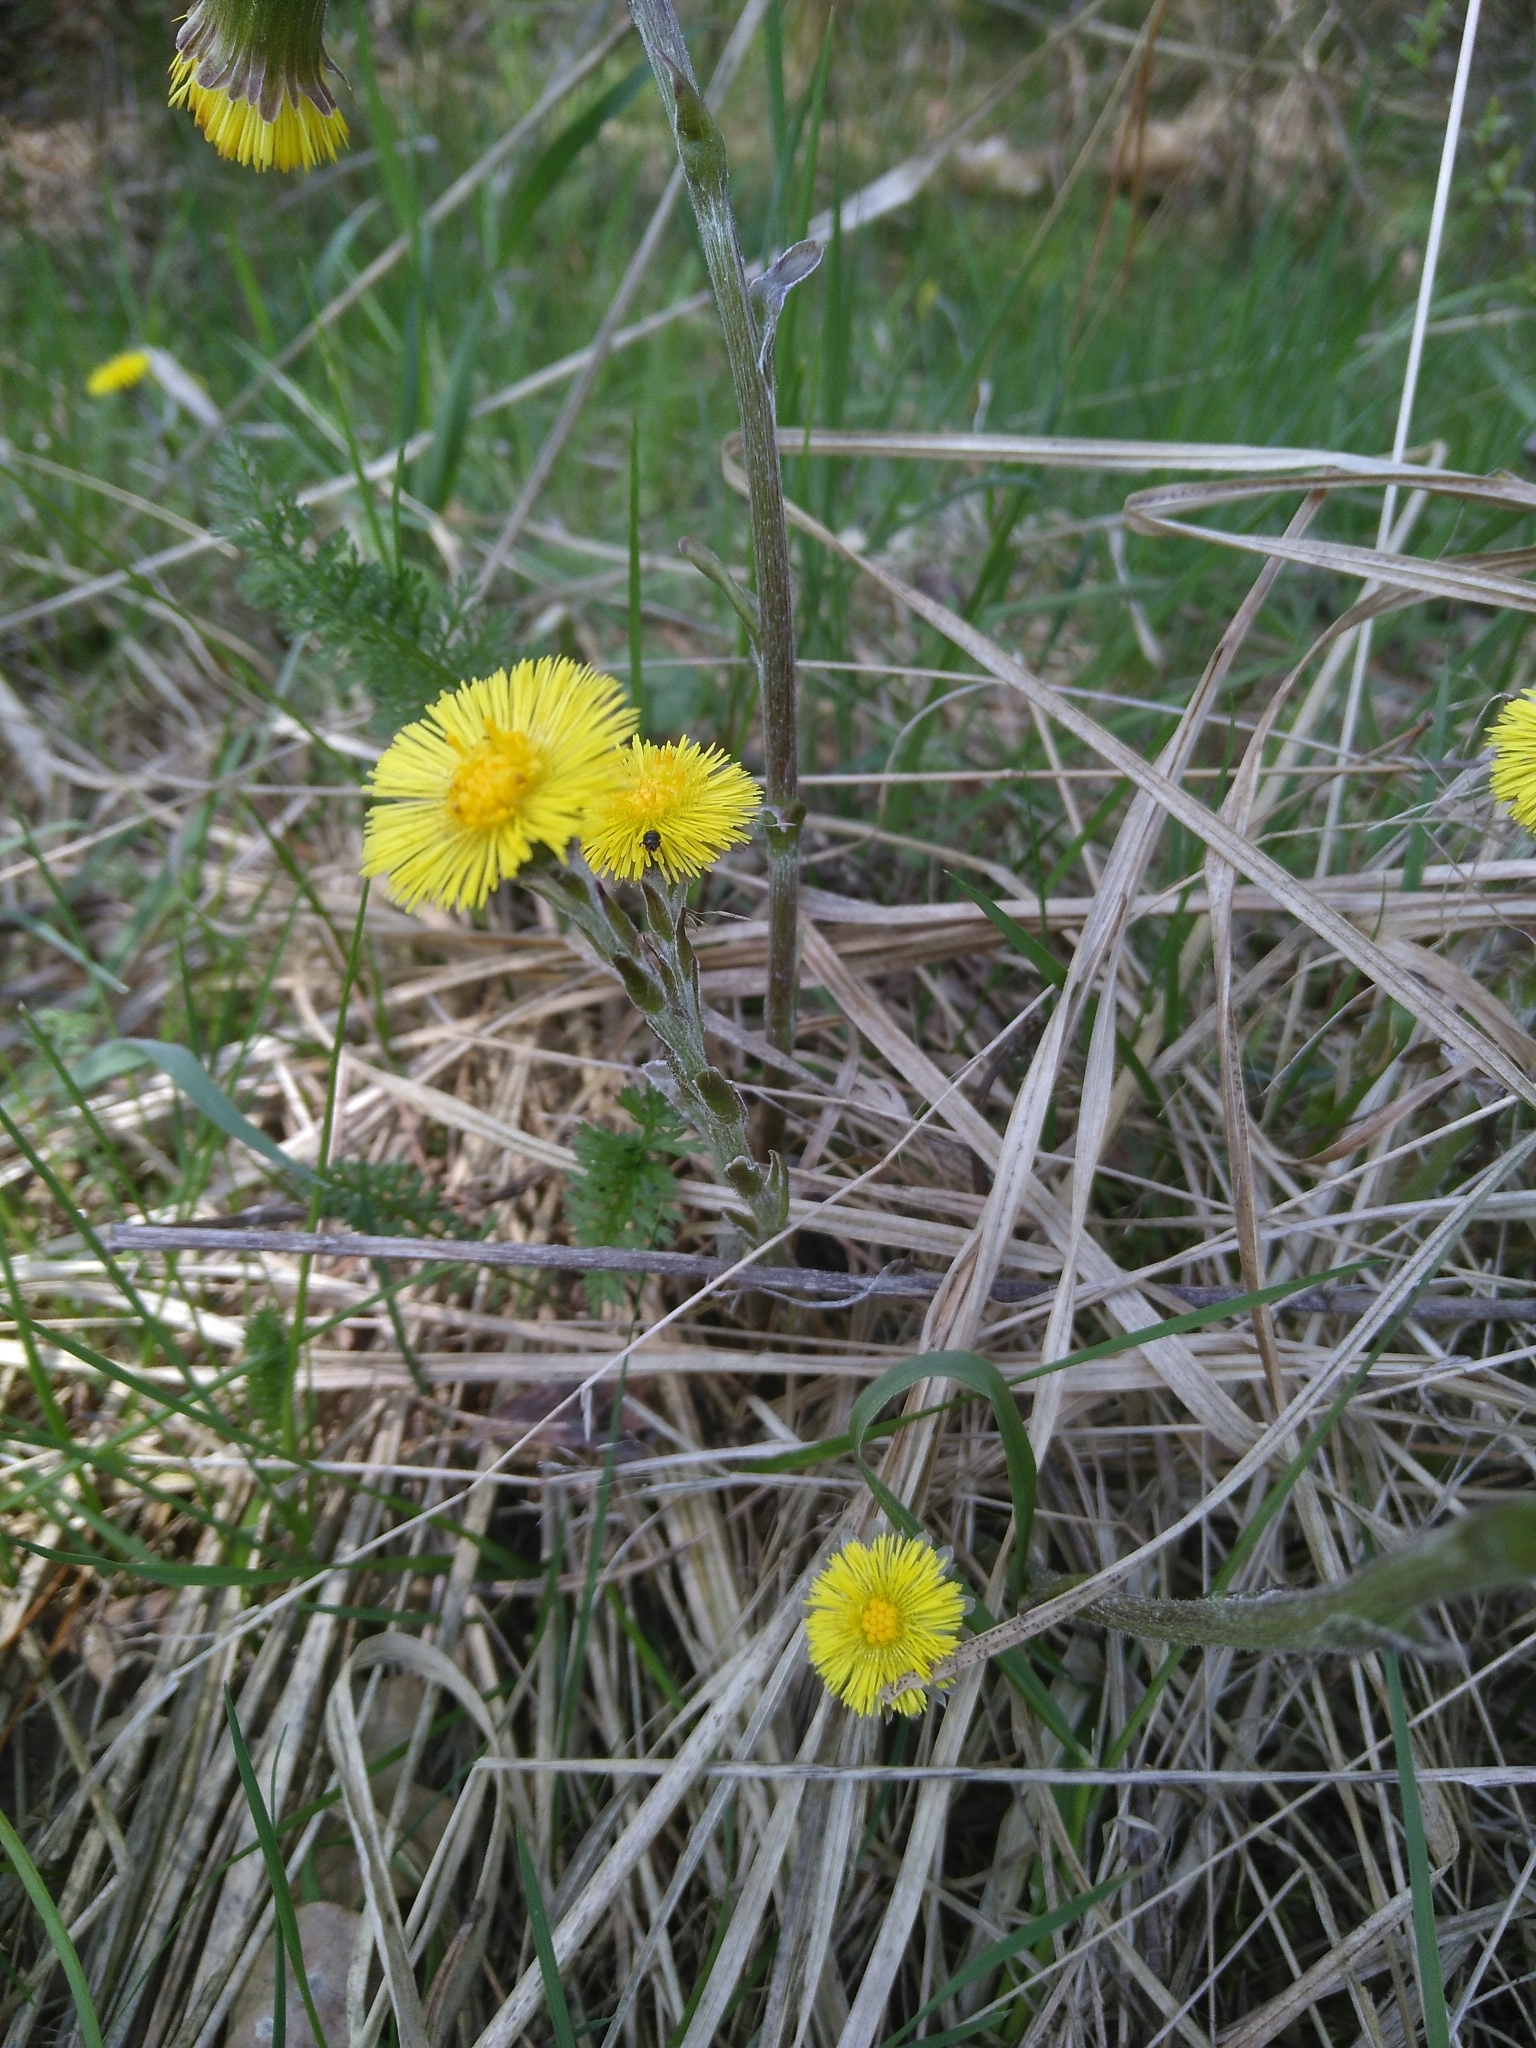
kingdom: Plantae
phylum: Tracheophyta
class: Magnoliopsida
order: Asterales
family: Asteraceae
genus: Tussilago
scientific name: Tussilago farfara
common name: Coltsfoot
